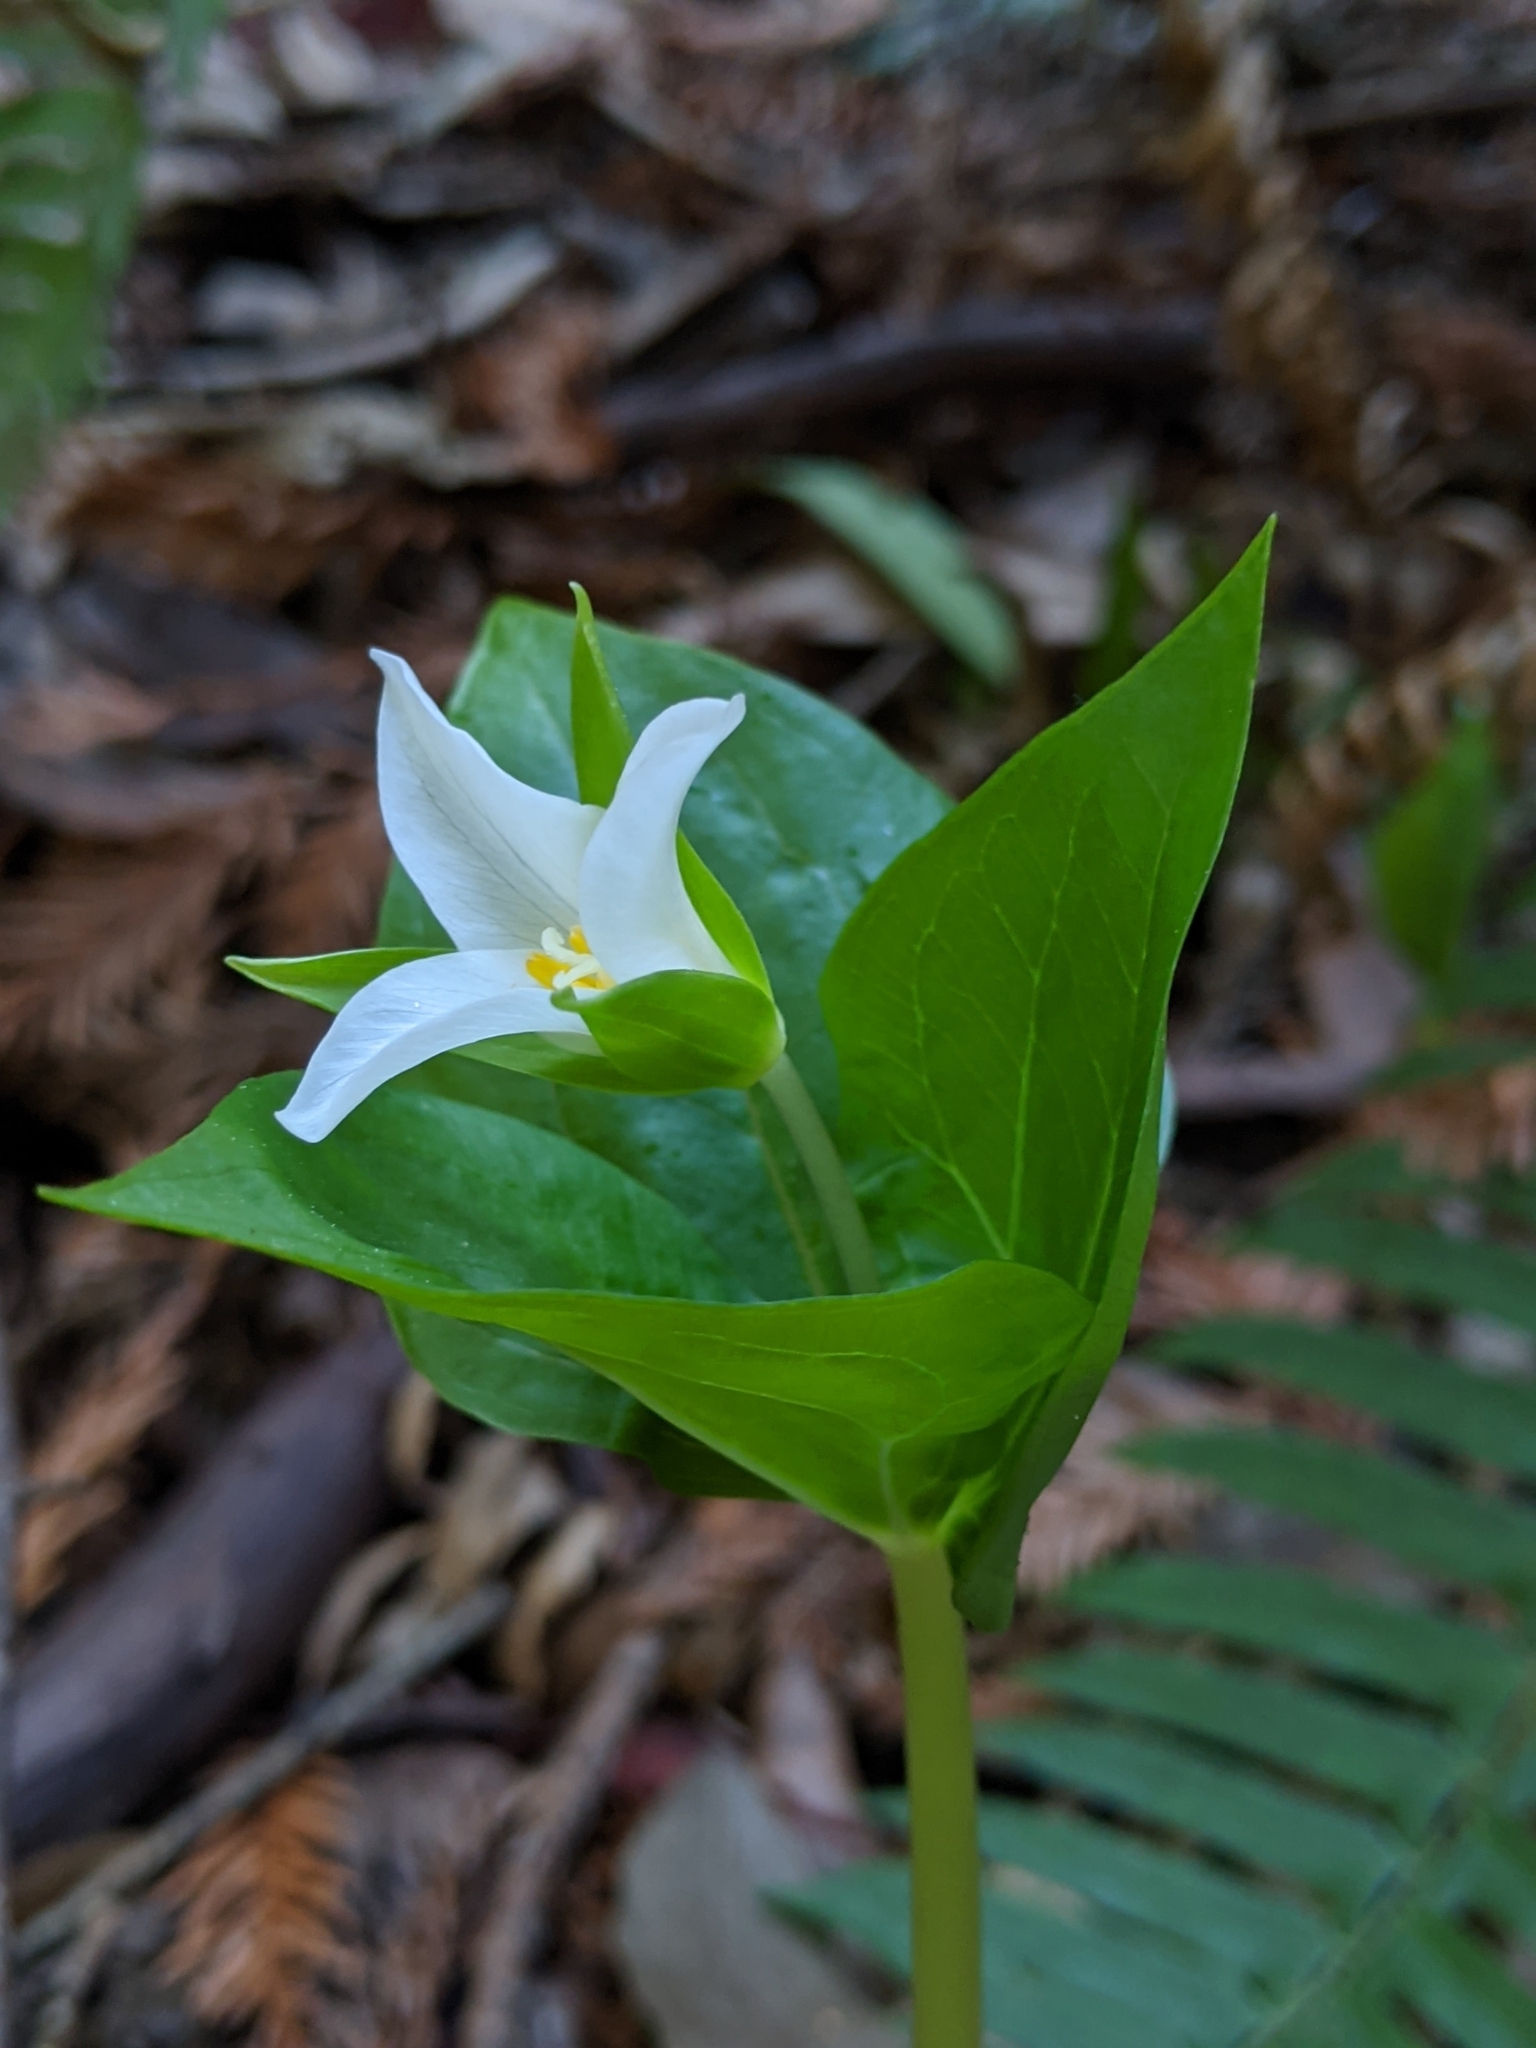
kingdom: Plantae
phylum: Tracheophyta
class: Liliopsida
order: Liliales
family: Melanthiaceae
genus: Trillium
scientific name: Trillium ovatum
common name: Pacific trillium
